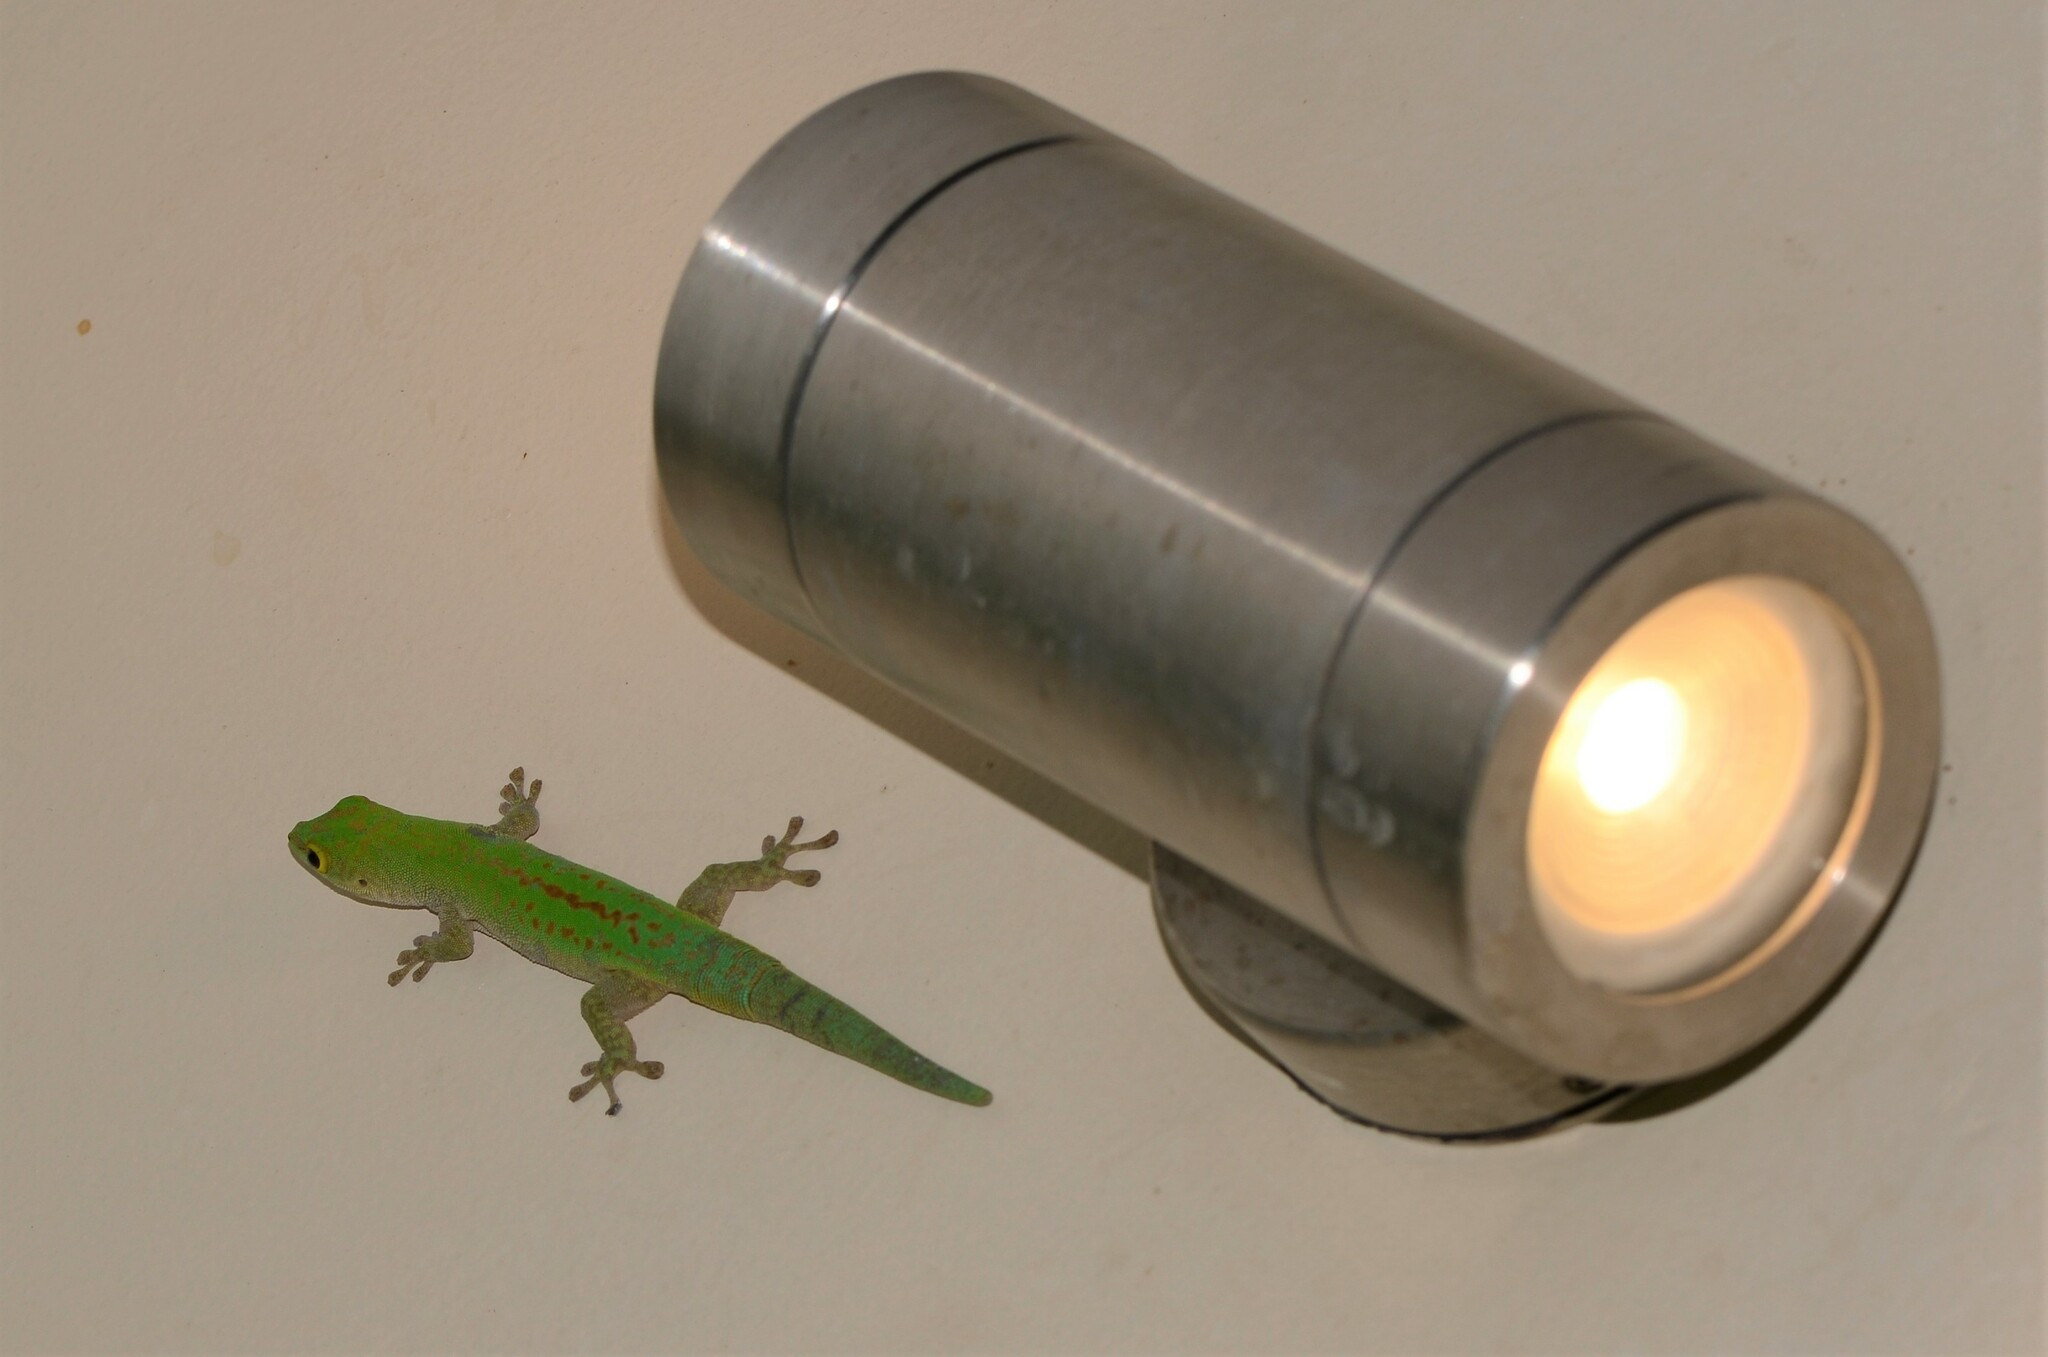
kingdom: Animalia
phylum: Chordata
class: Squamata
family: Gekkonidae
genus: Phelsuma
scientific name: Phelsuma sundbergi
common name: Seychelles giant day gecko
